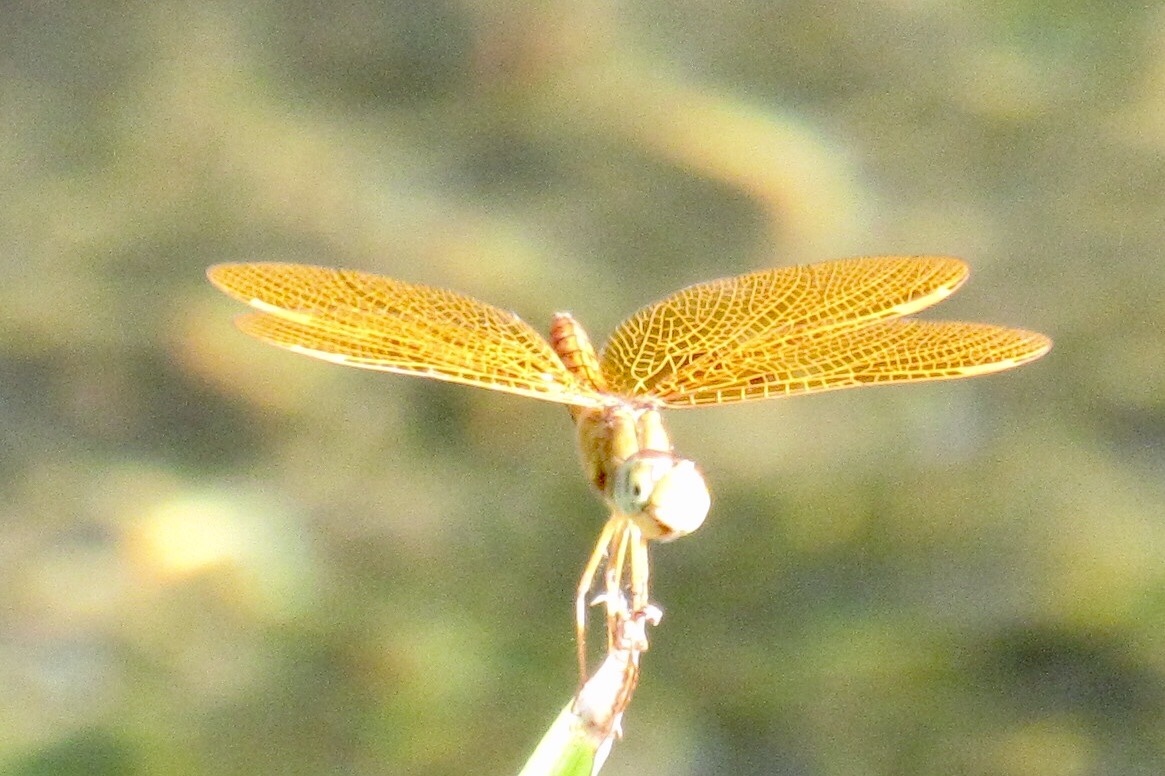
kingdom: Animalia
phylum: Arthropoda
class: Insecta
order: Odonata
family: Libellulidae
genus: Perithemis
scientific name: Perithemis intensa
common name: Mexican amberwing
